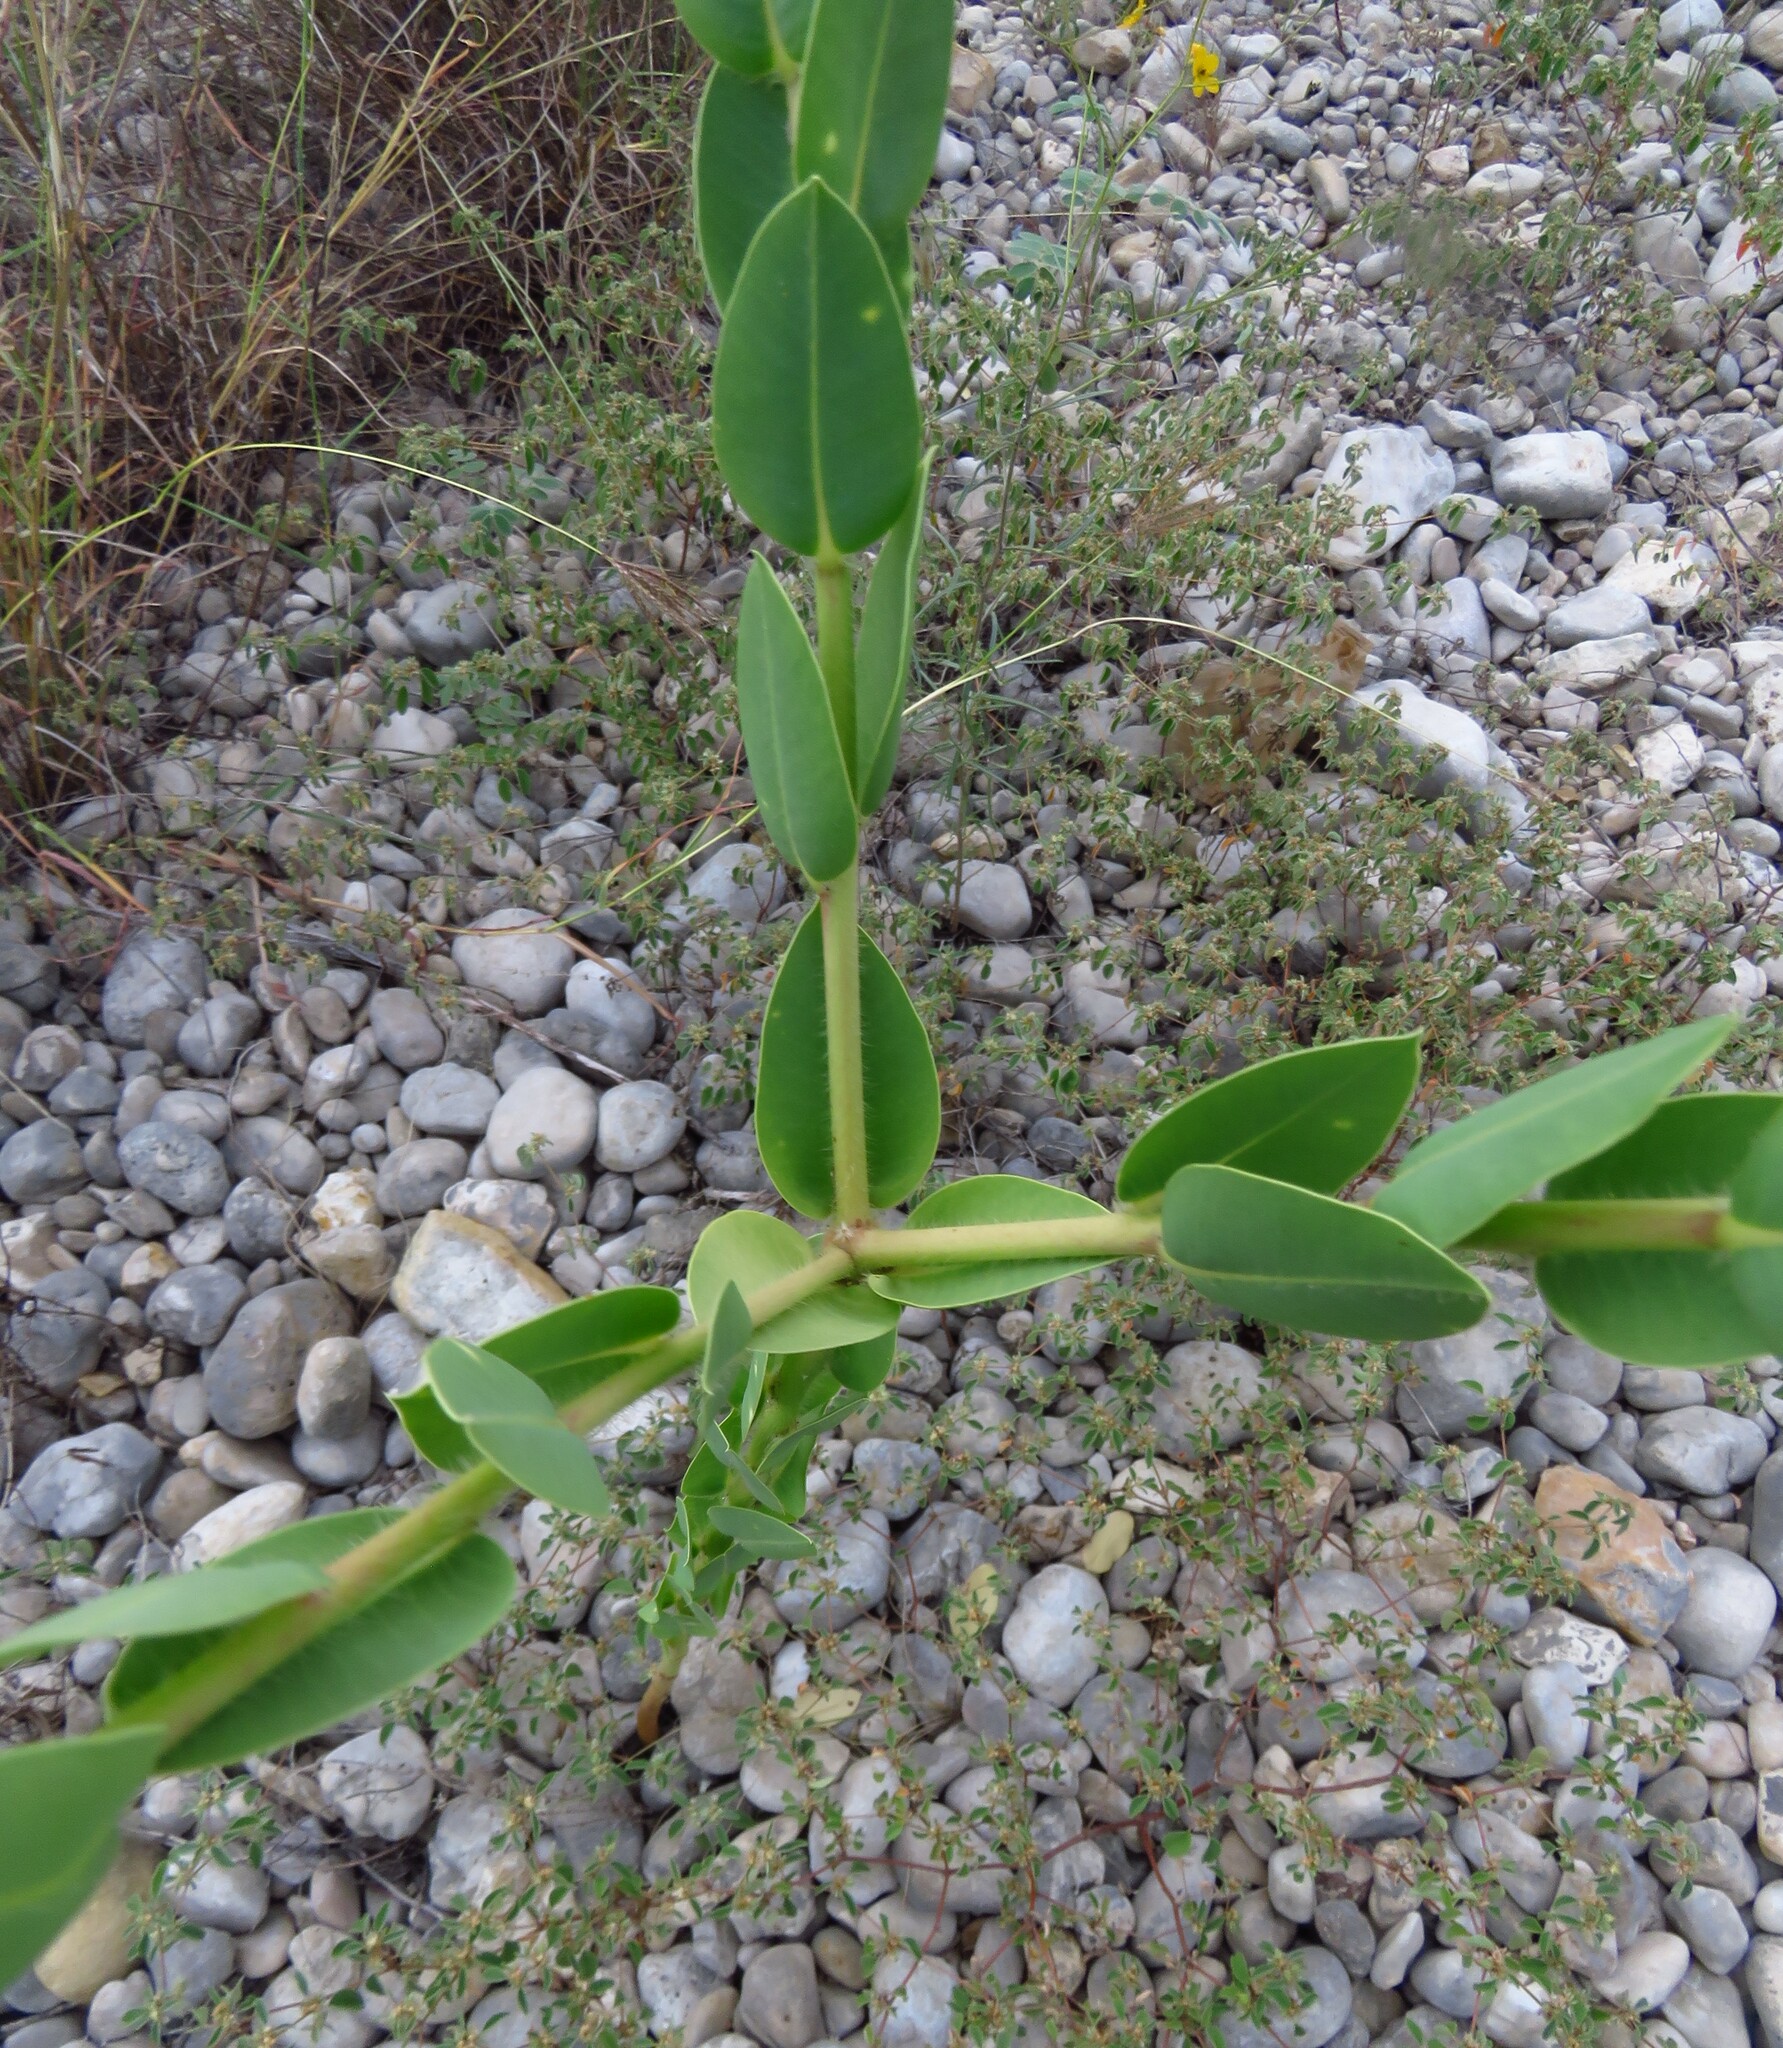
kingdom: Plantae
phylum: Tracheophyta
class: Magnoliopsida
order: Malpighiales
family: Euphorbiaceae
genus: Euphorbia
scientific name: Euphorbia marginata
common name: Ghostweed
